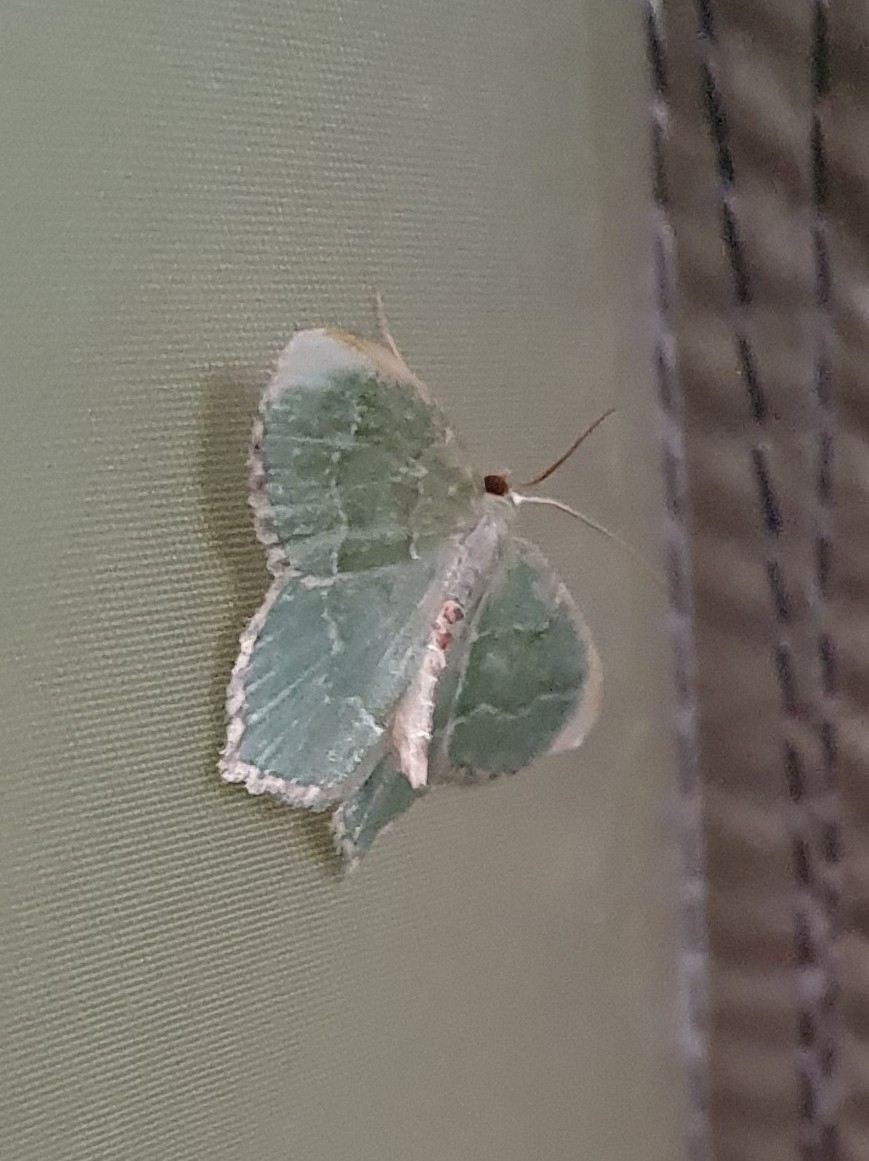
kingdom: Animalia
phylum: Arthropoda
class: Insecta
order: Lepidoptera
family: Geometridae
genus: Hemithea
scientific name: Hemithea aestivaria
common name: Common emerald
